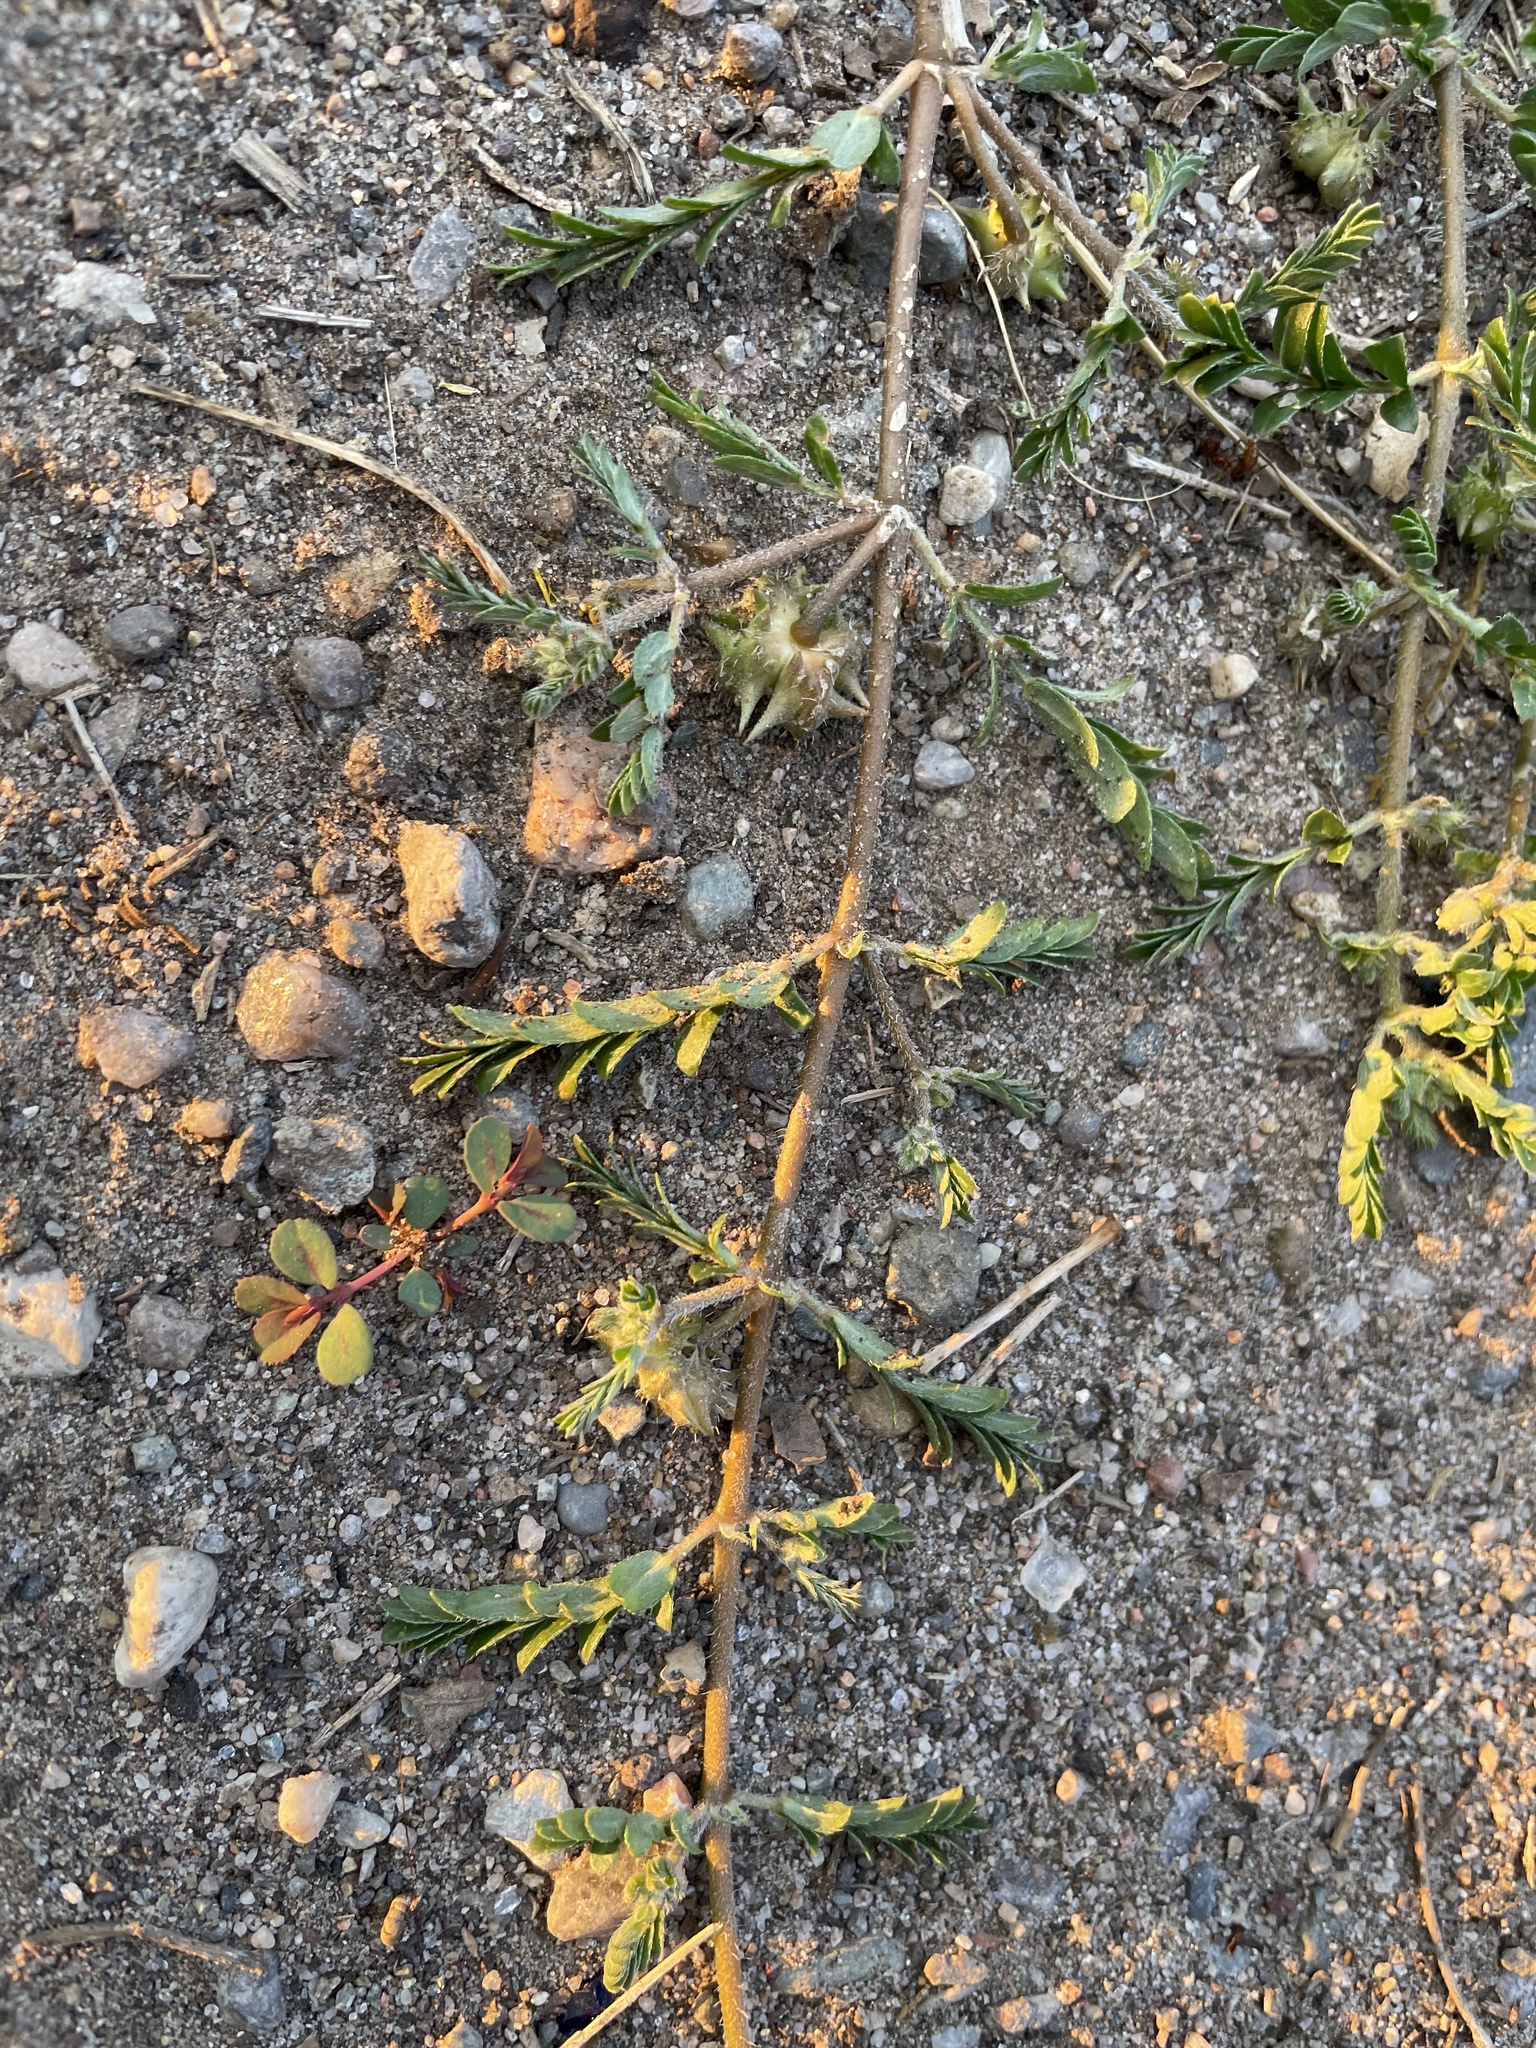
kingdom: Plantae
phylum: Tracheophyta
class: Magnoliopsida
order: Zygophyllales
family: Zygophyllaceae
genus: Tribulus
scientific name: Tribulus terrestris
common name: Puncturevine
